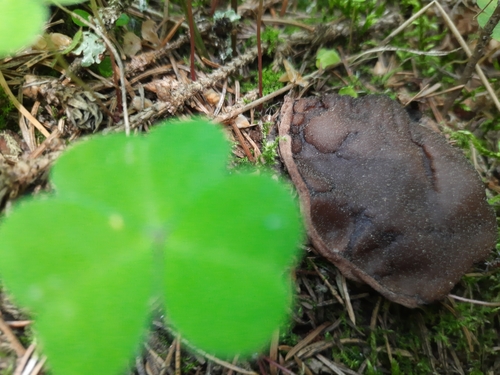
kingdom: Fungi
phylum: Ascomycota
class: Pezizomycetes
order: Pezizales
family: Sarcosomataceae
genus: Sarcosoma
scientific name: Sarcosoma globosum
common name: Charred-pancake cup
